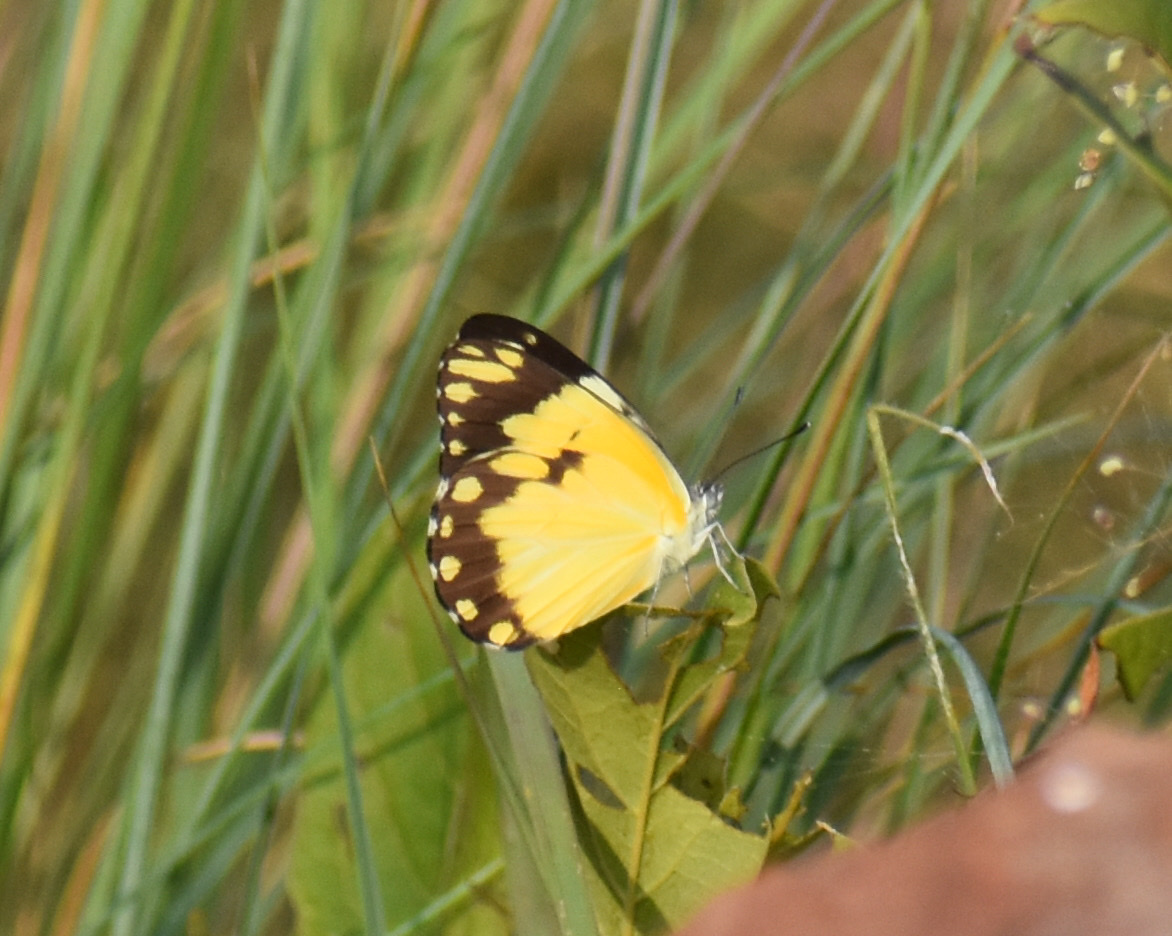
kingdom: Animalia
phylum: Arthropoda
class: Insecta
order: Lepidoptera
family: Pieridae
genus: Belenois
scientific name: Belenois creona
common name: African caper white
